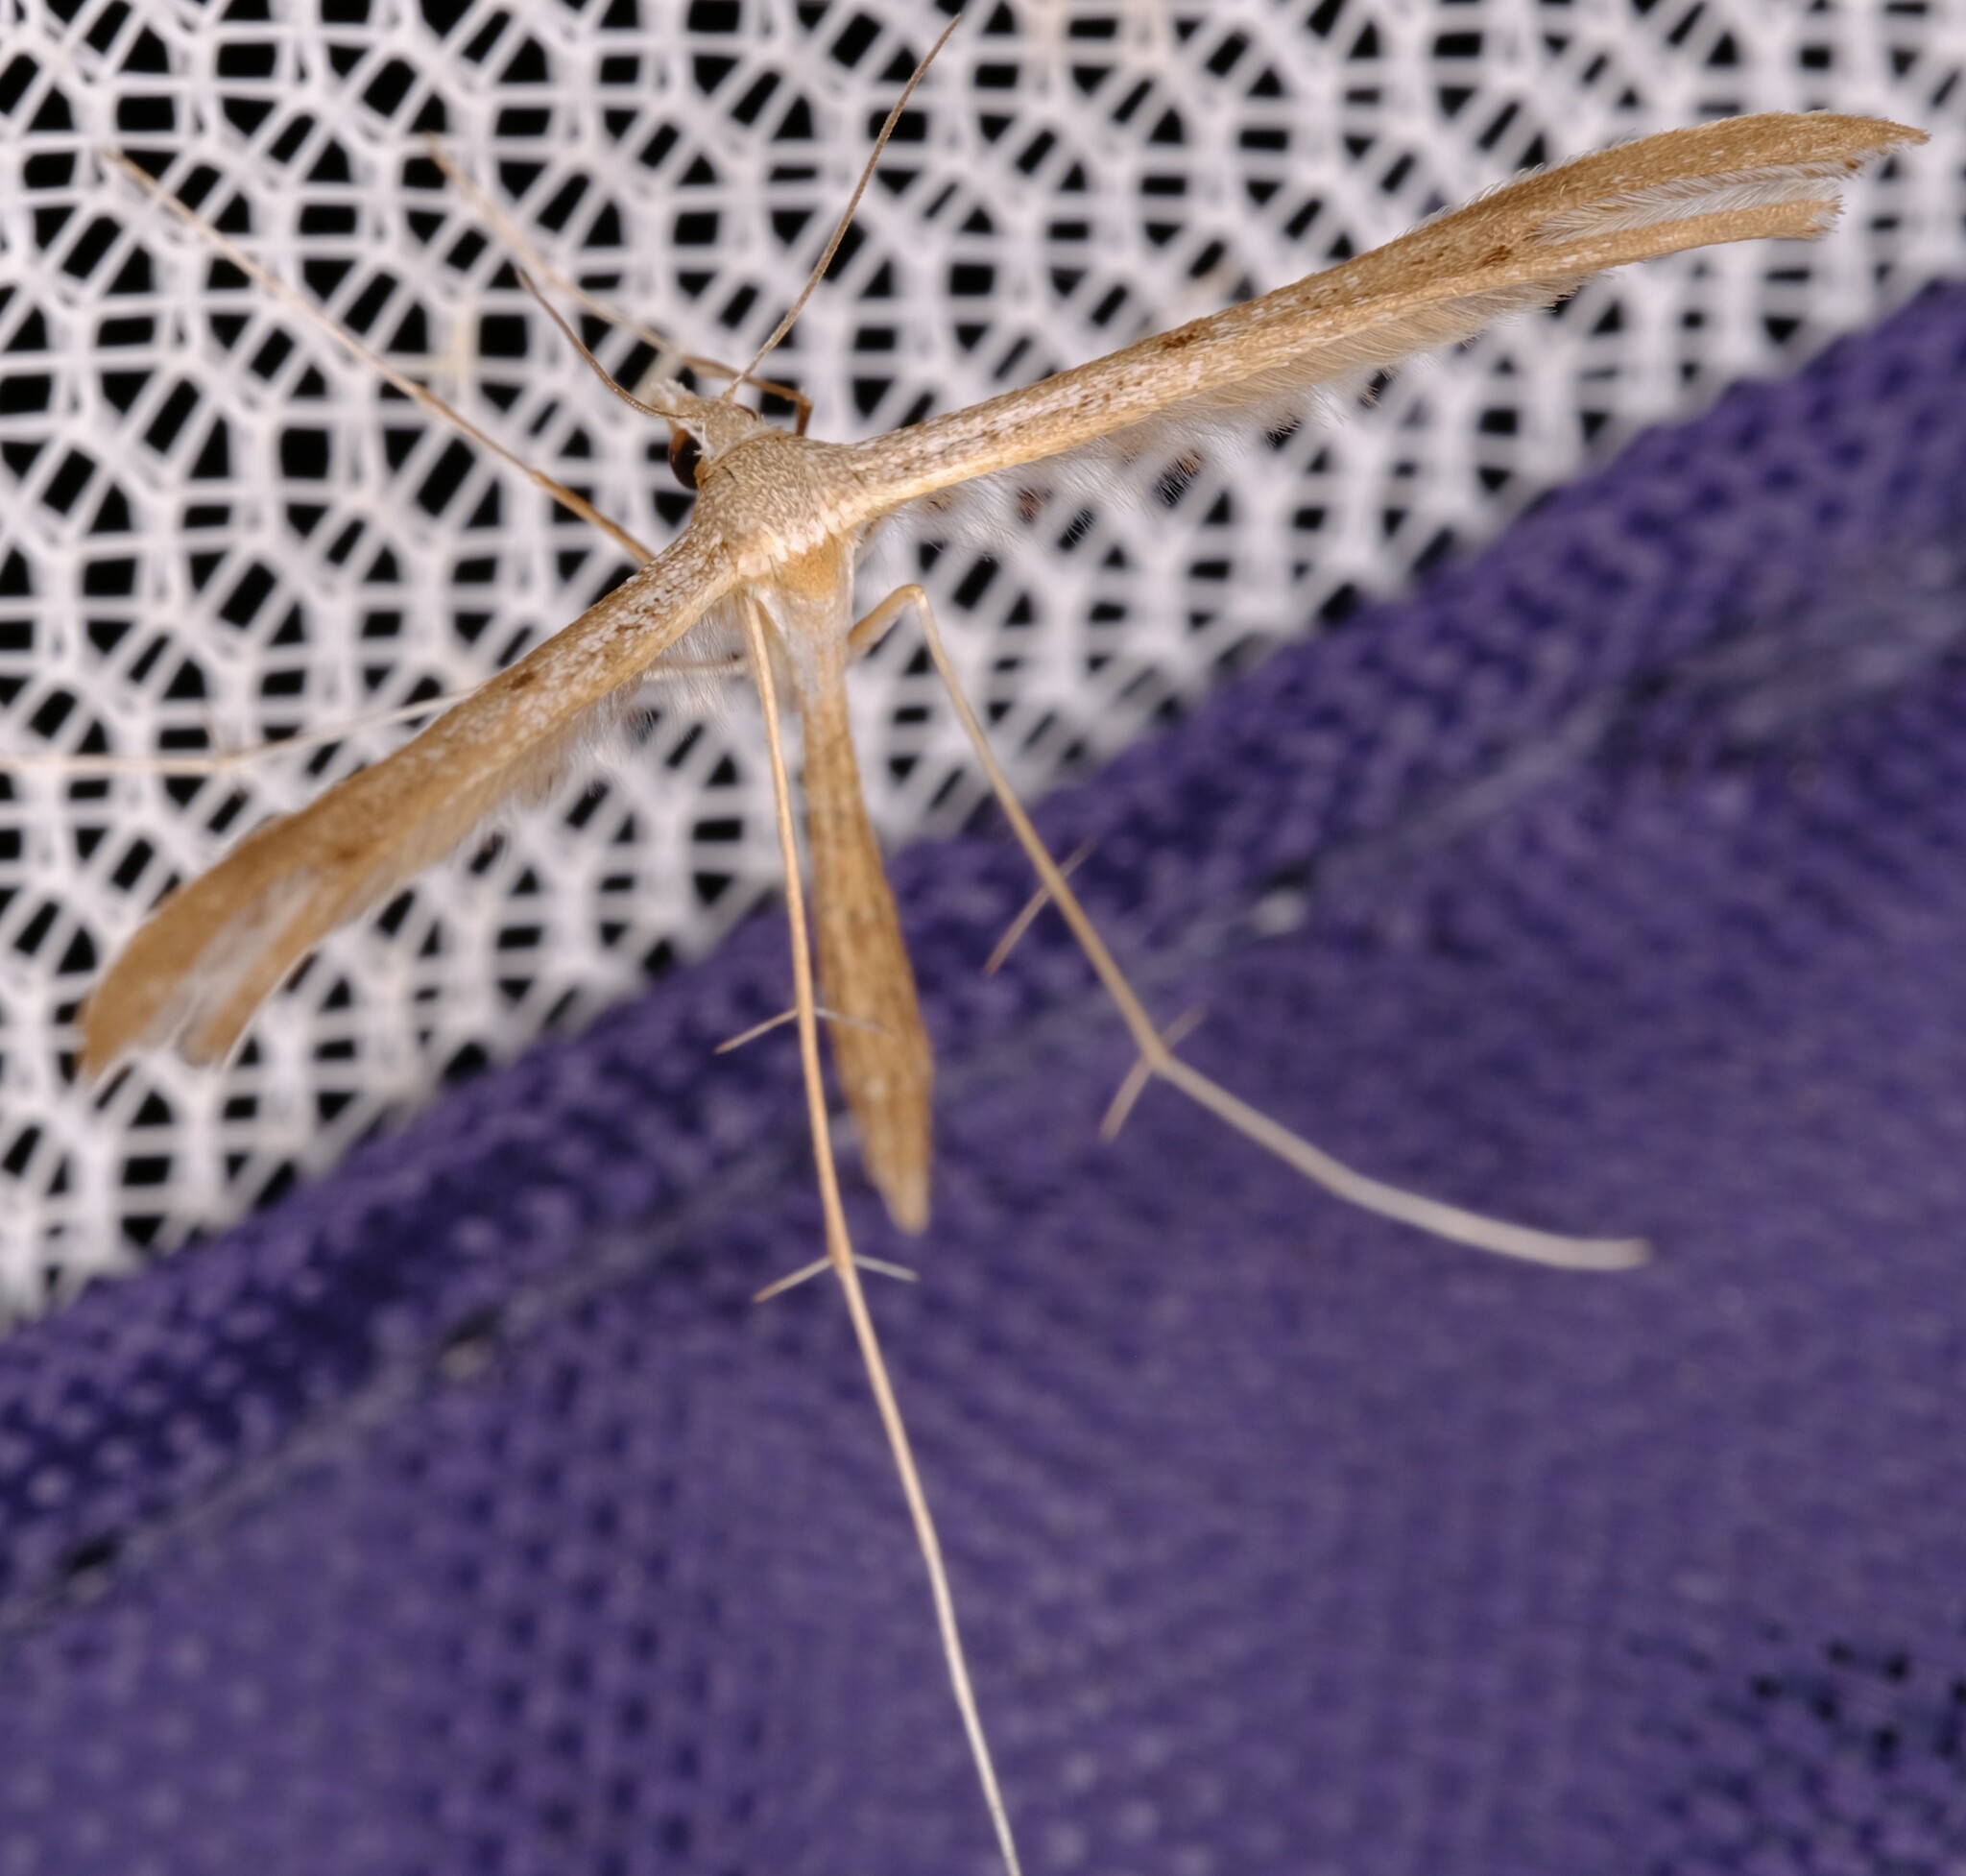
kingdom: Animalia
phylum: Arthropoda
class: Insecta
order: Lepidoptera
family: Pterophoridae
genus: Stenoptilia
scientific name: Stenoptilia zophodactylus
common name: Dowdy plume
